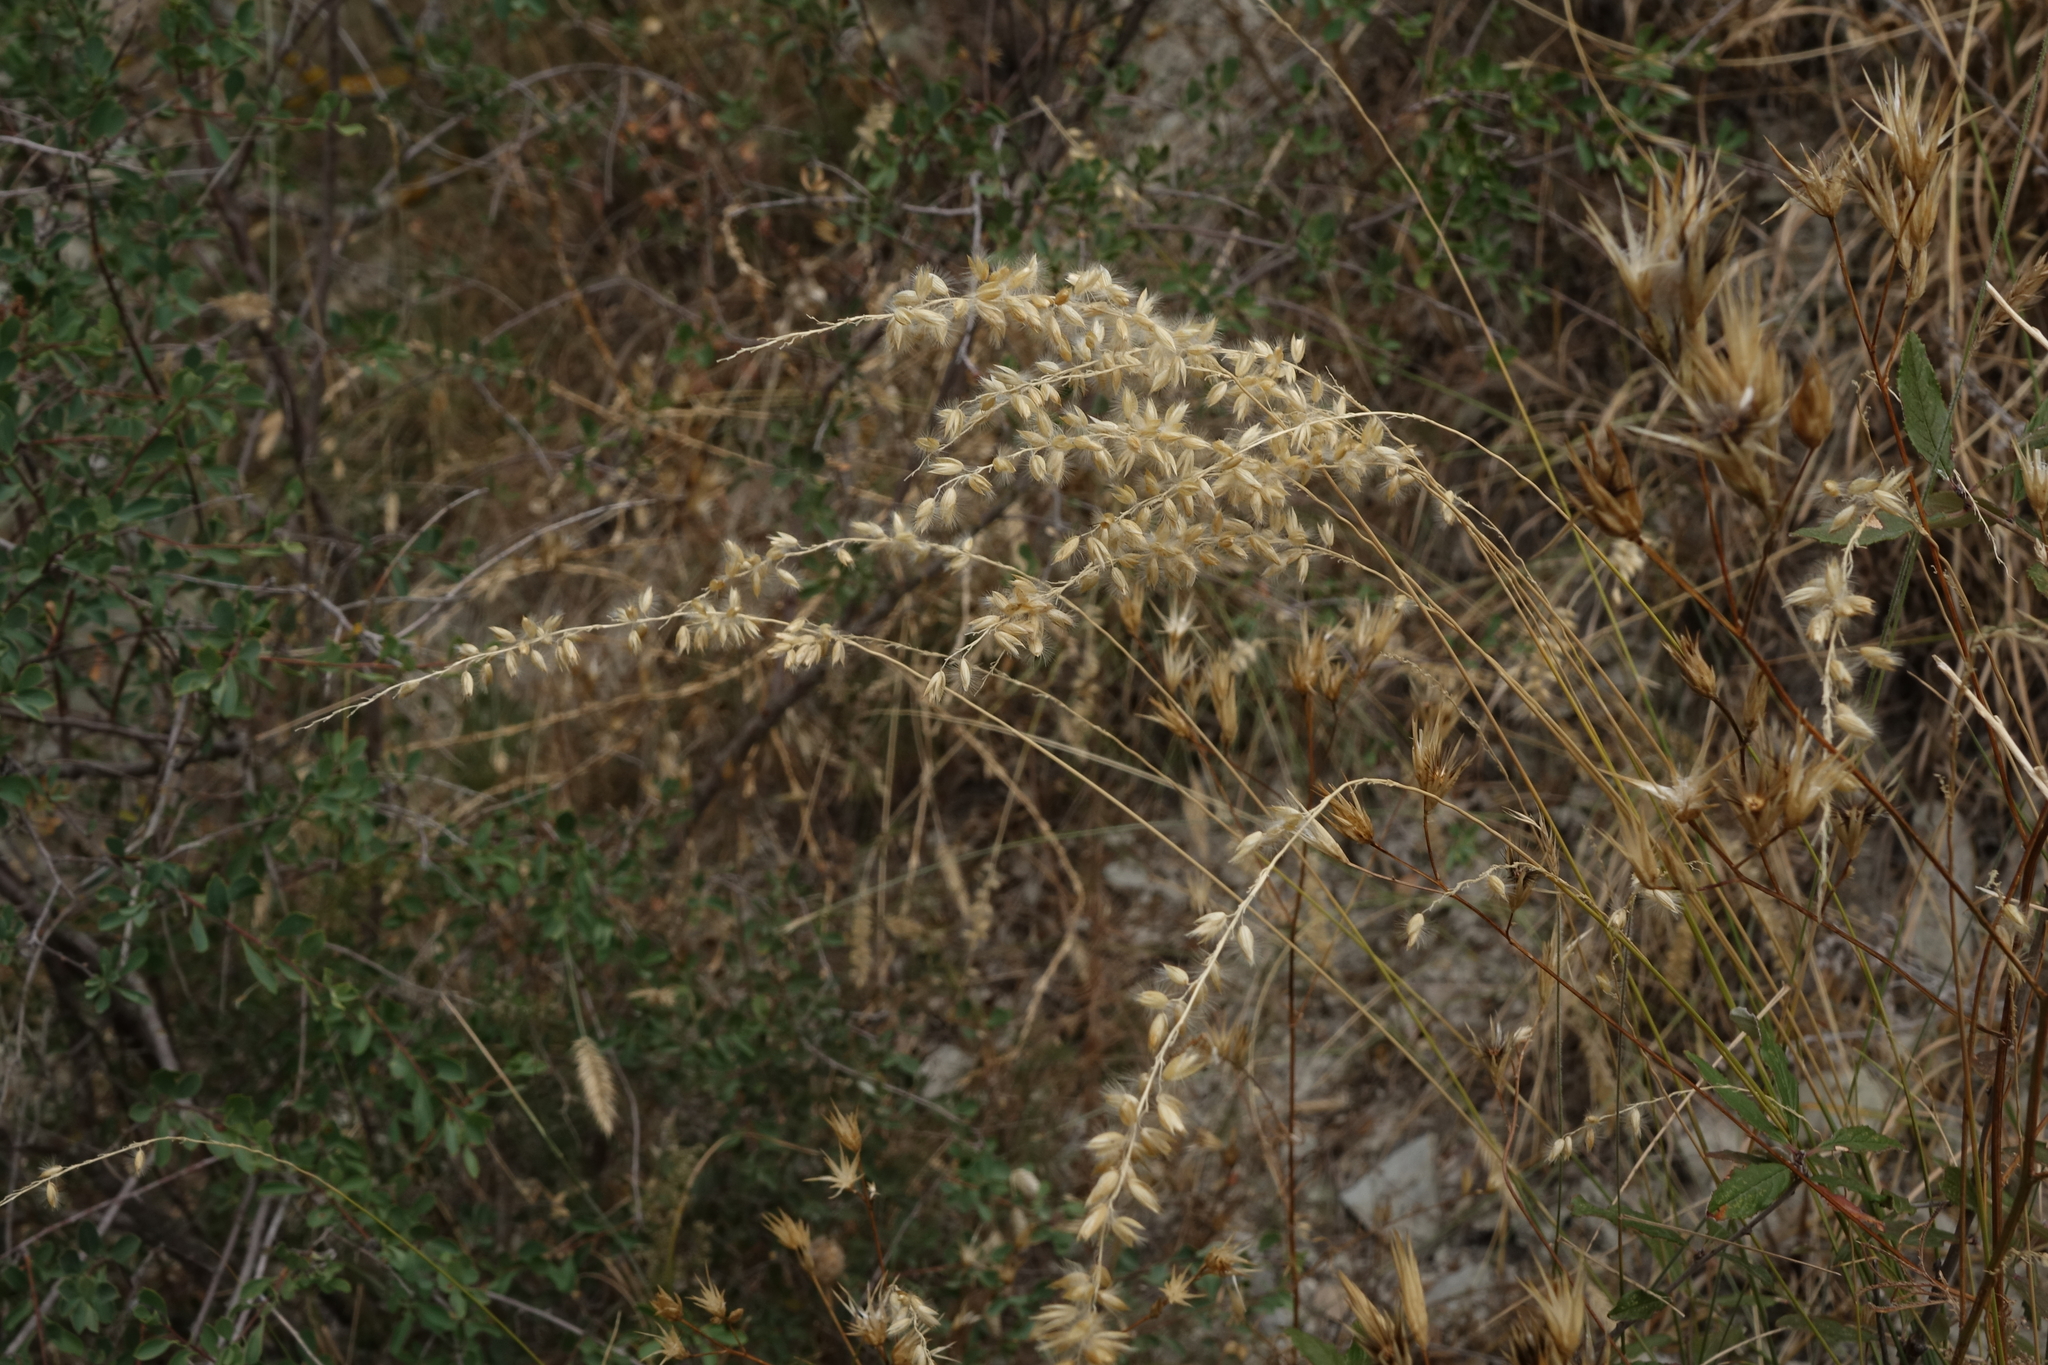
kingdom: Plantae
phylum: Tracheophyta
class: Liliopsida
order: Poales
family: Poaceae
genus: Melica
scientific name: Melica transsilvanica
